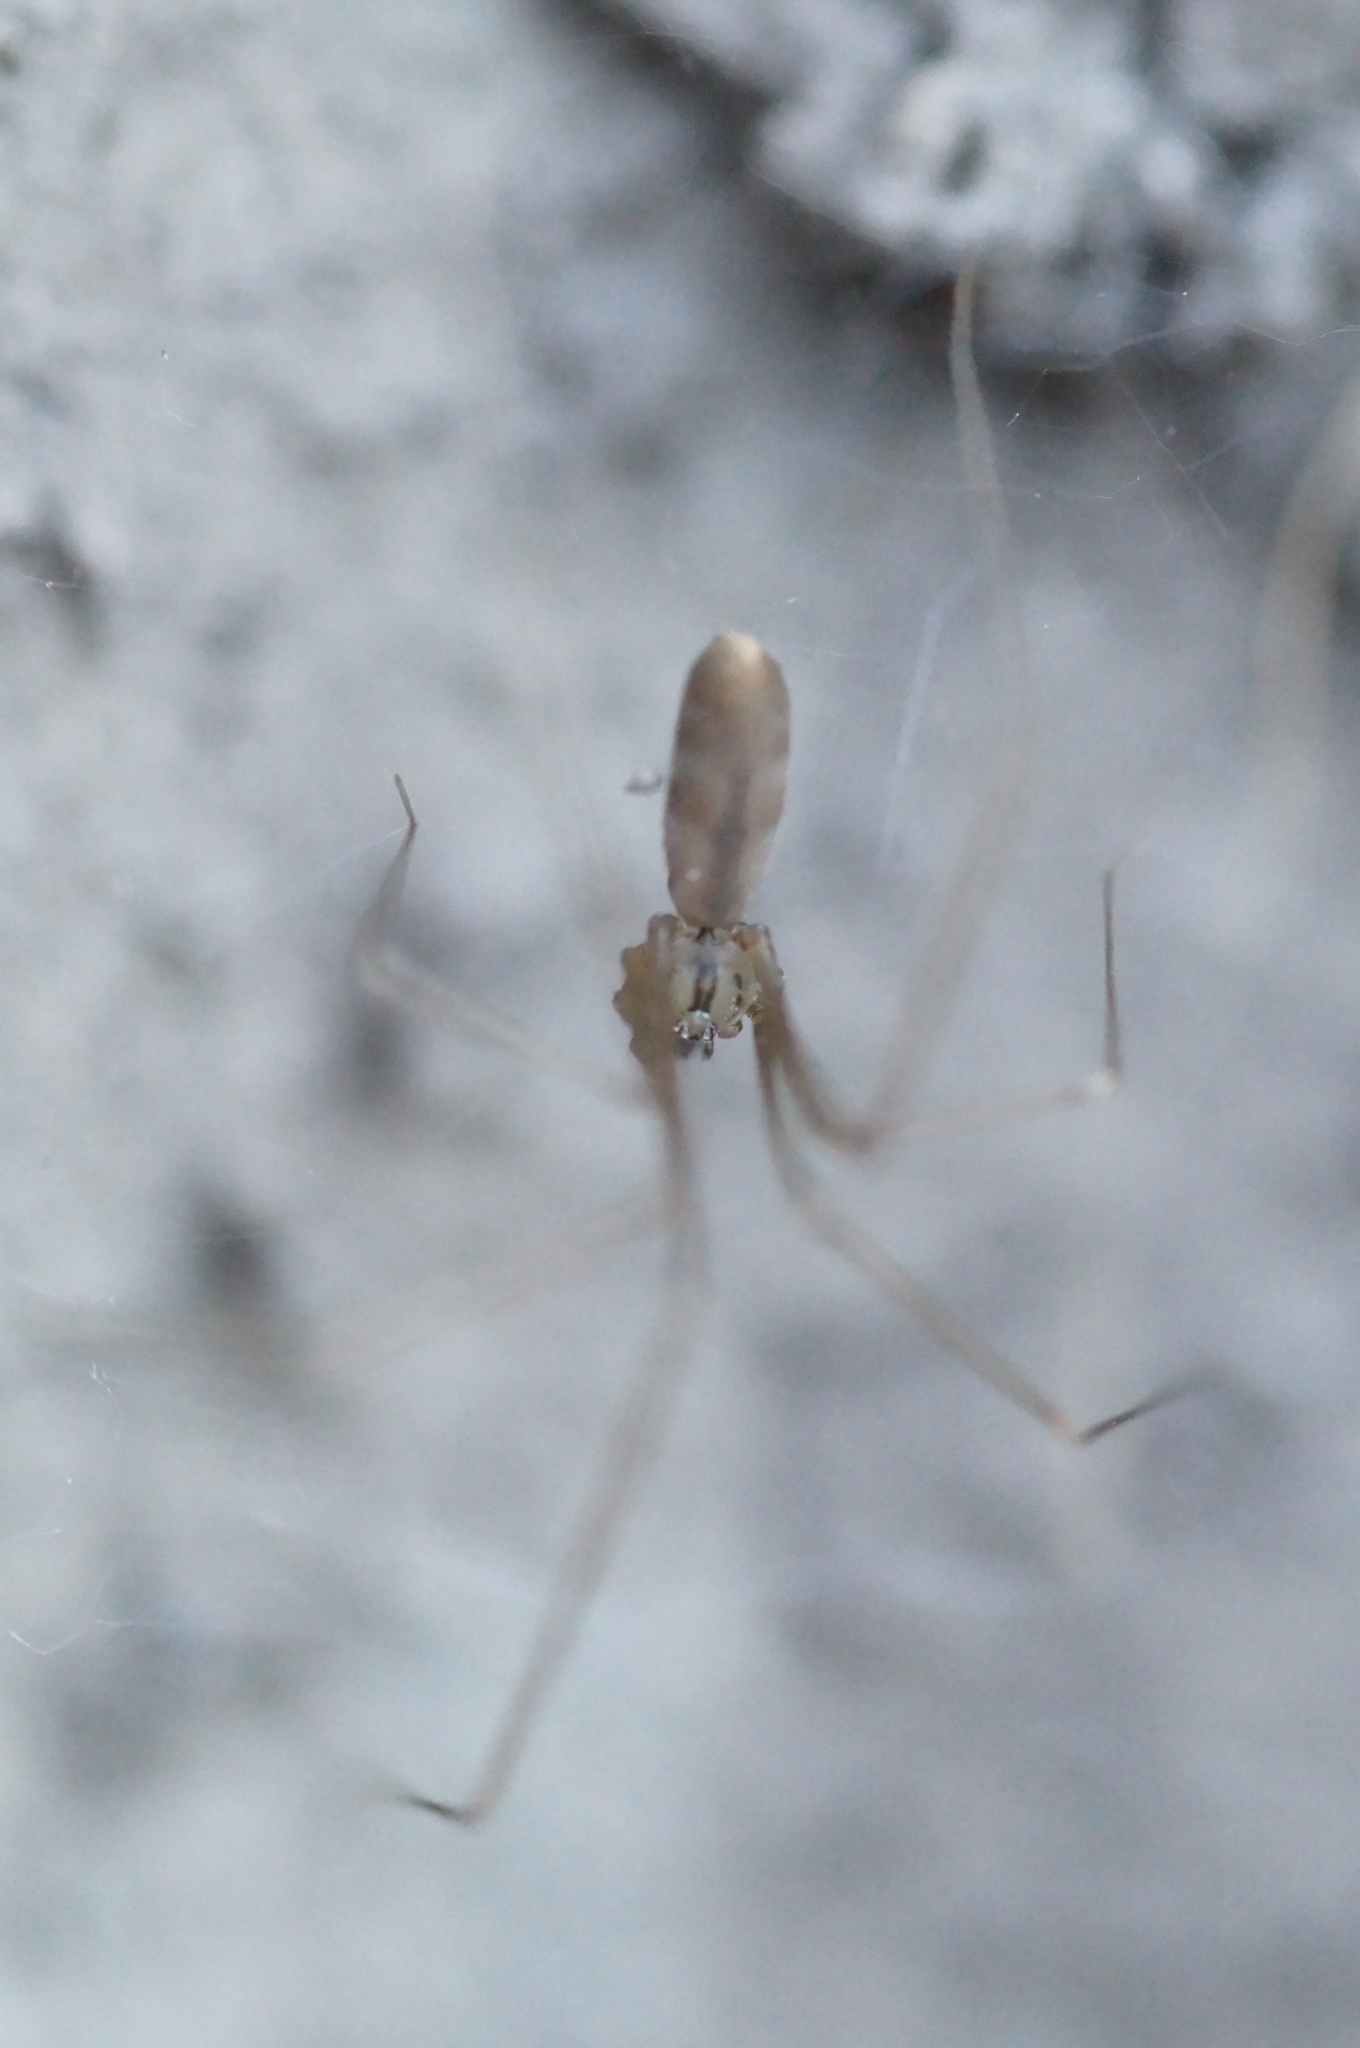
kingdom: Animalia
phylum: Arthropoda
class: Arachnida
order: Araneae
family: Pholcidae
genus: Pholcus
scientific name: Pholcus opilionoides
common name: Daddylongleg spider
